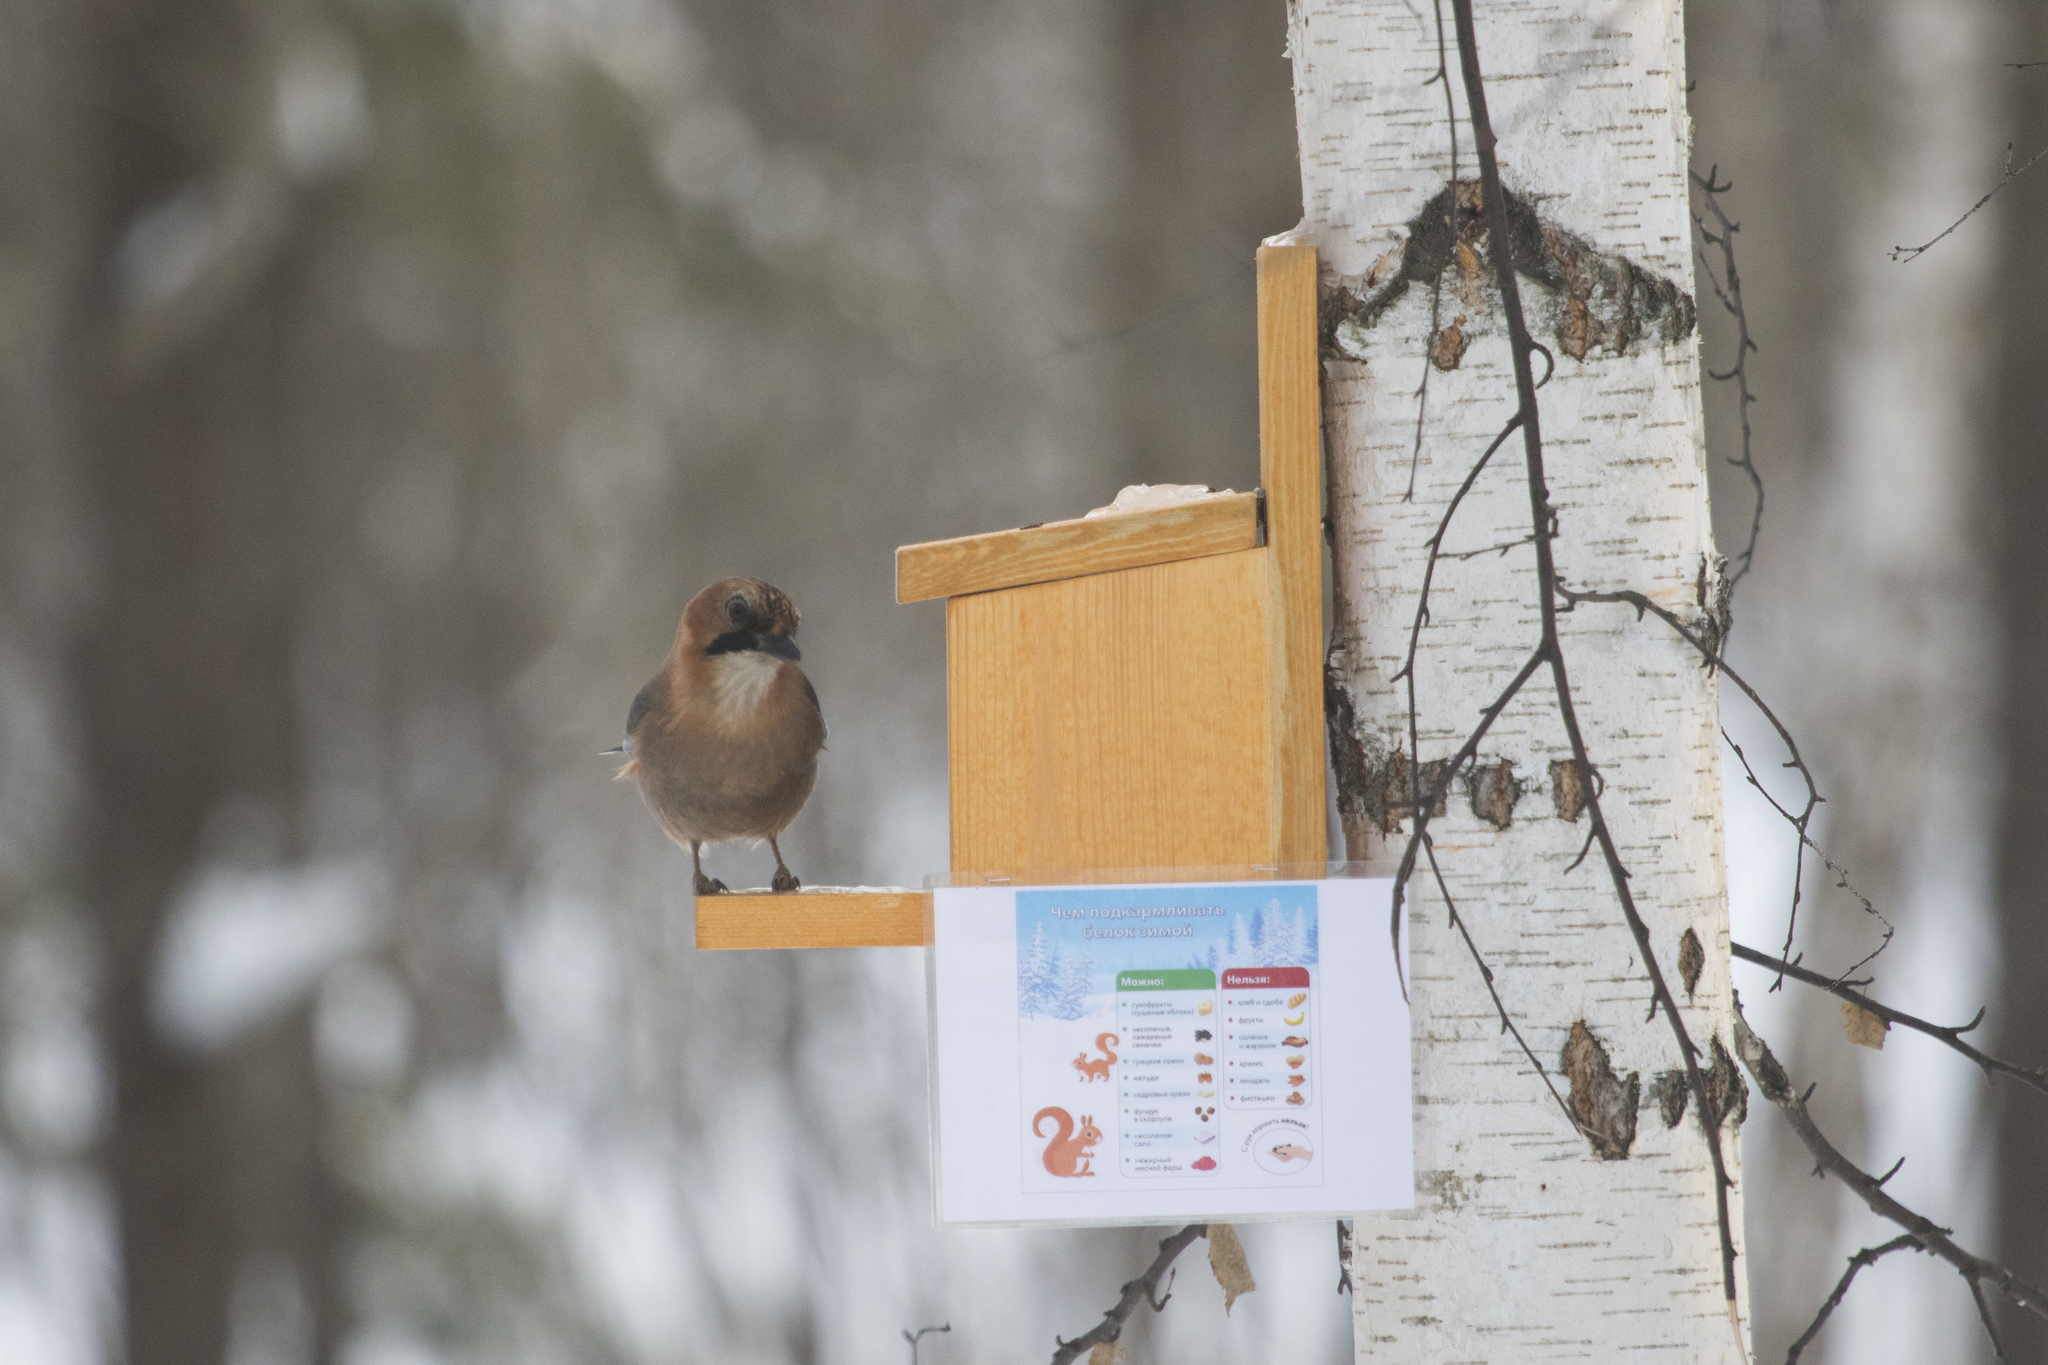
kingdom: Animalia
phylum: Chordata
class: Aves
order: Passeriformes
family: Corvidae
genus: Garrulus
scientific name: Garrulus glandarius
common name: Eurasian jay
